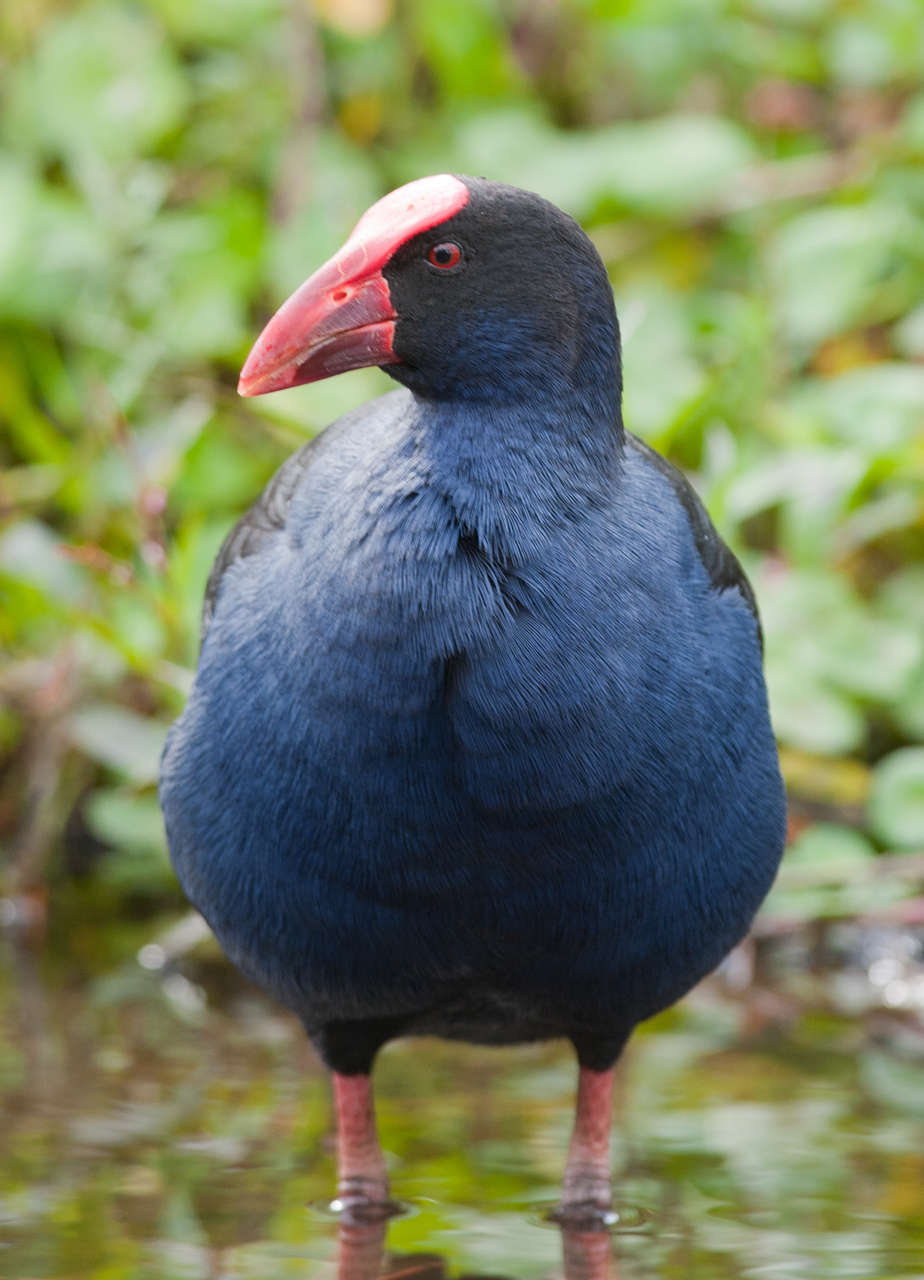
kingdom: Animalia
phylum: Chordata
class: Aves
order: Gruiformes
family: Rallidae
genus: Porphyrio
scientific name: Porphyrio melanotus
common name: Australasian swamphen
